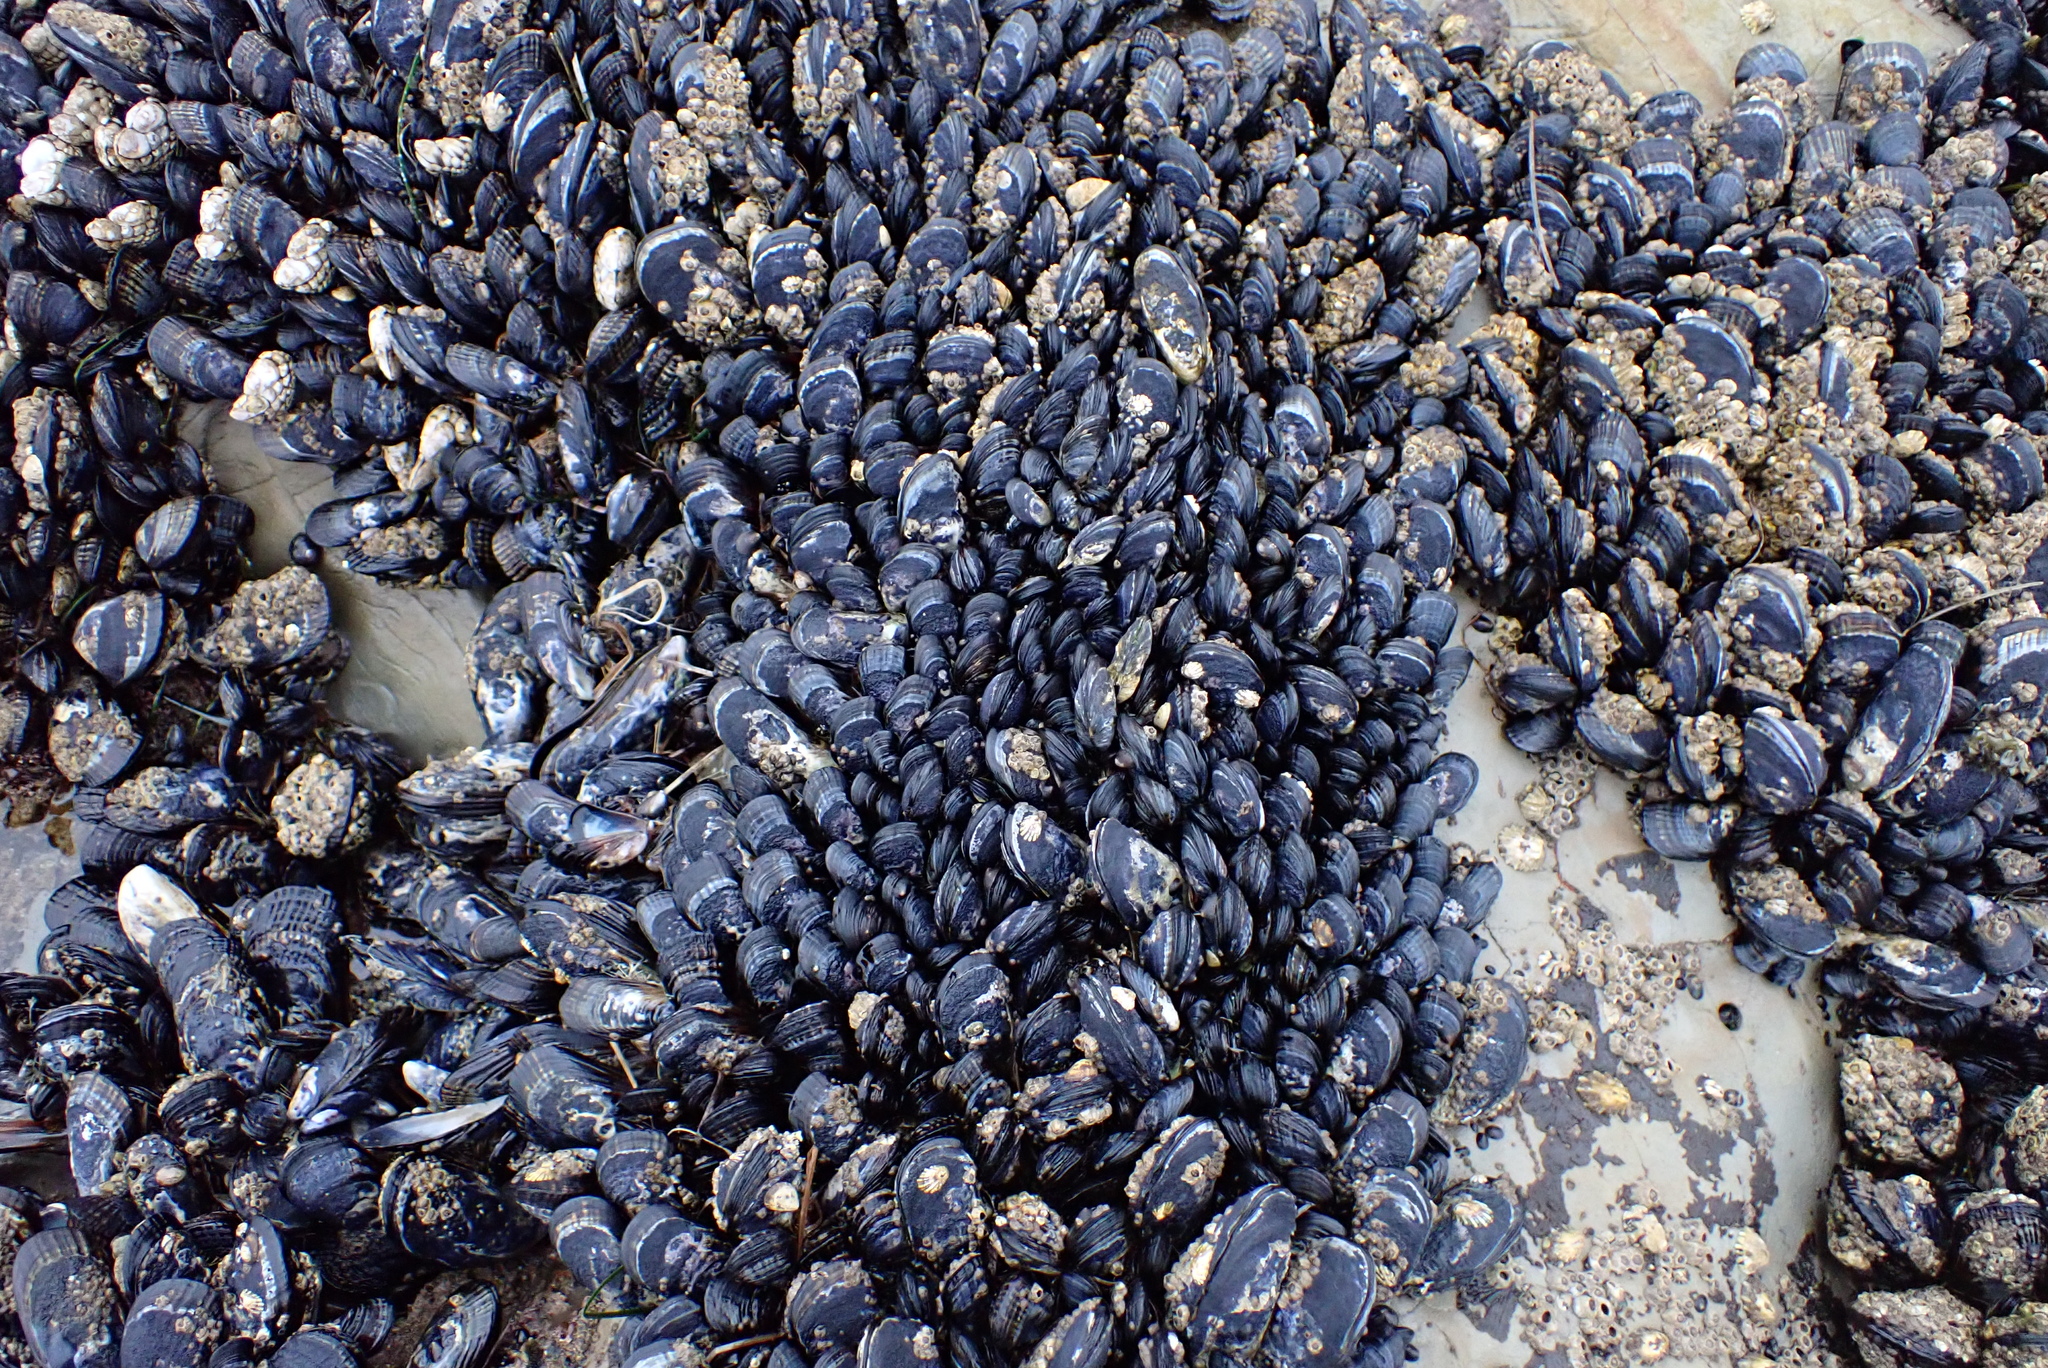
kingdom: Animalia
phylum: Mollusca
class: Bivalvia
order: Mytilida
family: Mytilidae
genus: Mytilus
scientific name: Mytilus californianus
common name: California mussel
